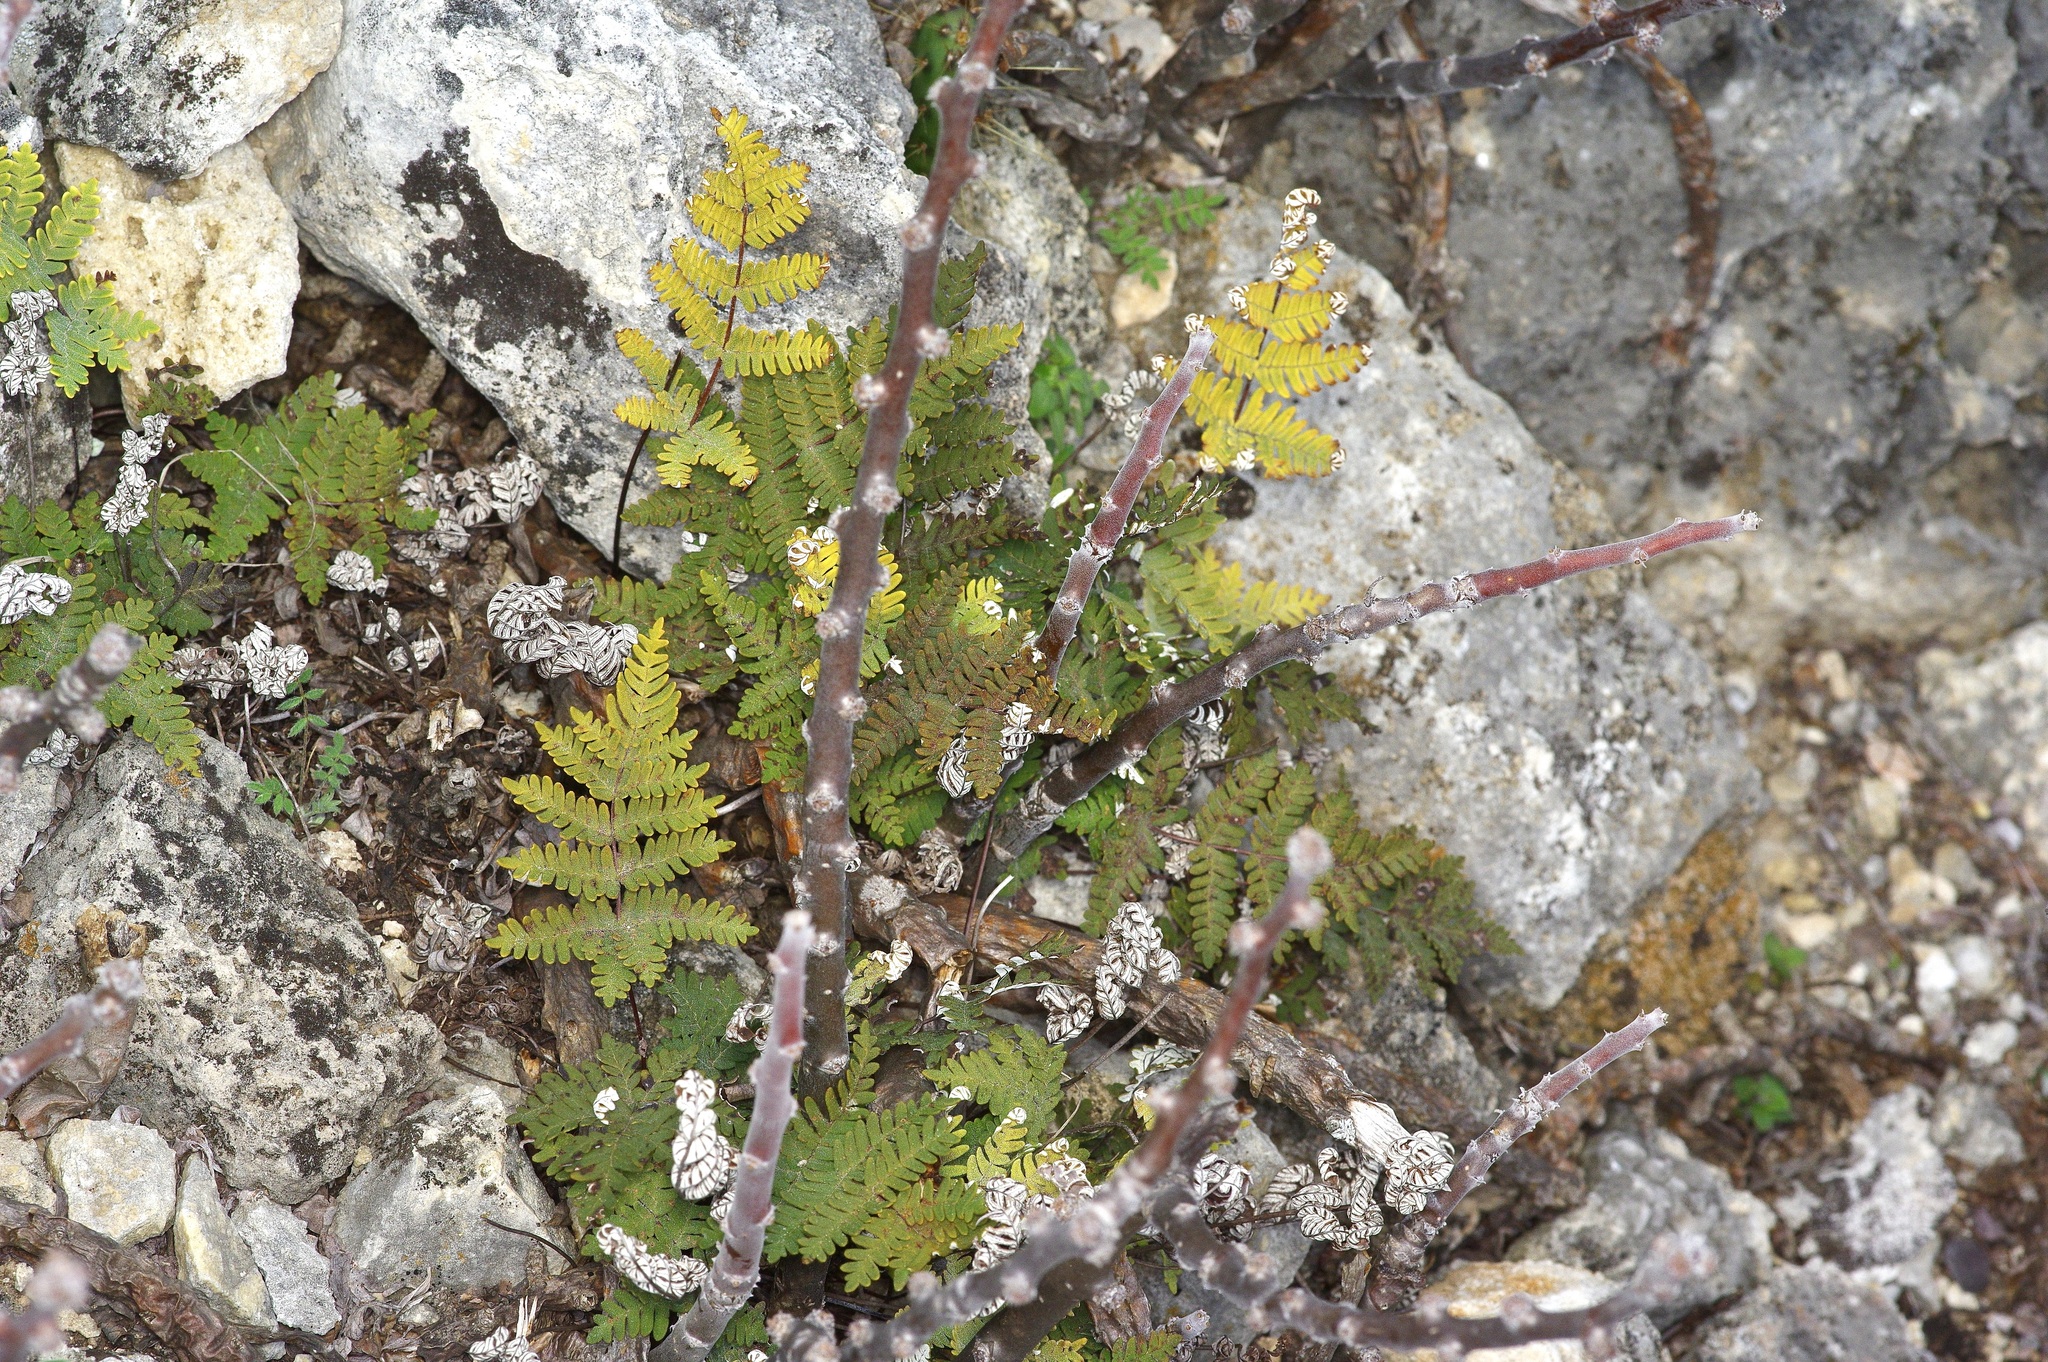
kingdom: Plantae
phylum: Tracheophyta
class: Polypodiopsida
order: Polypodiales
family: Pteridaceae
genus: Notholaena
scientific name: Notholaena candida
